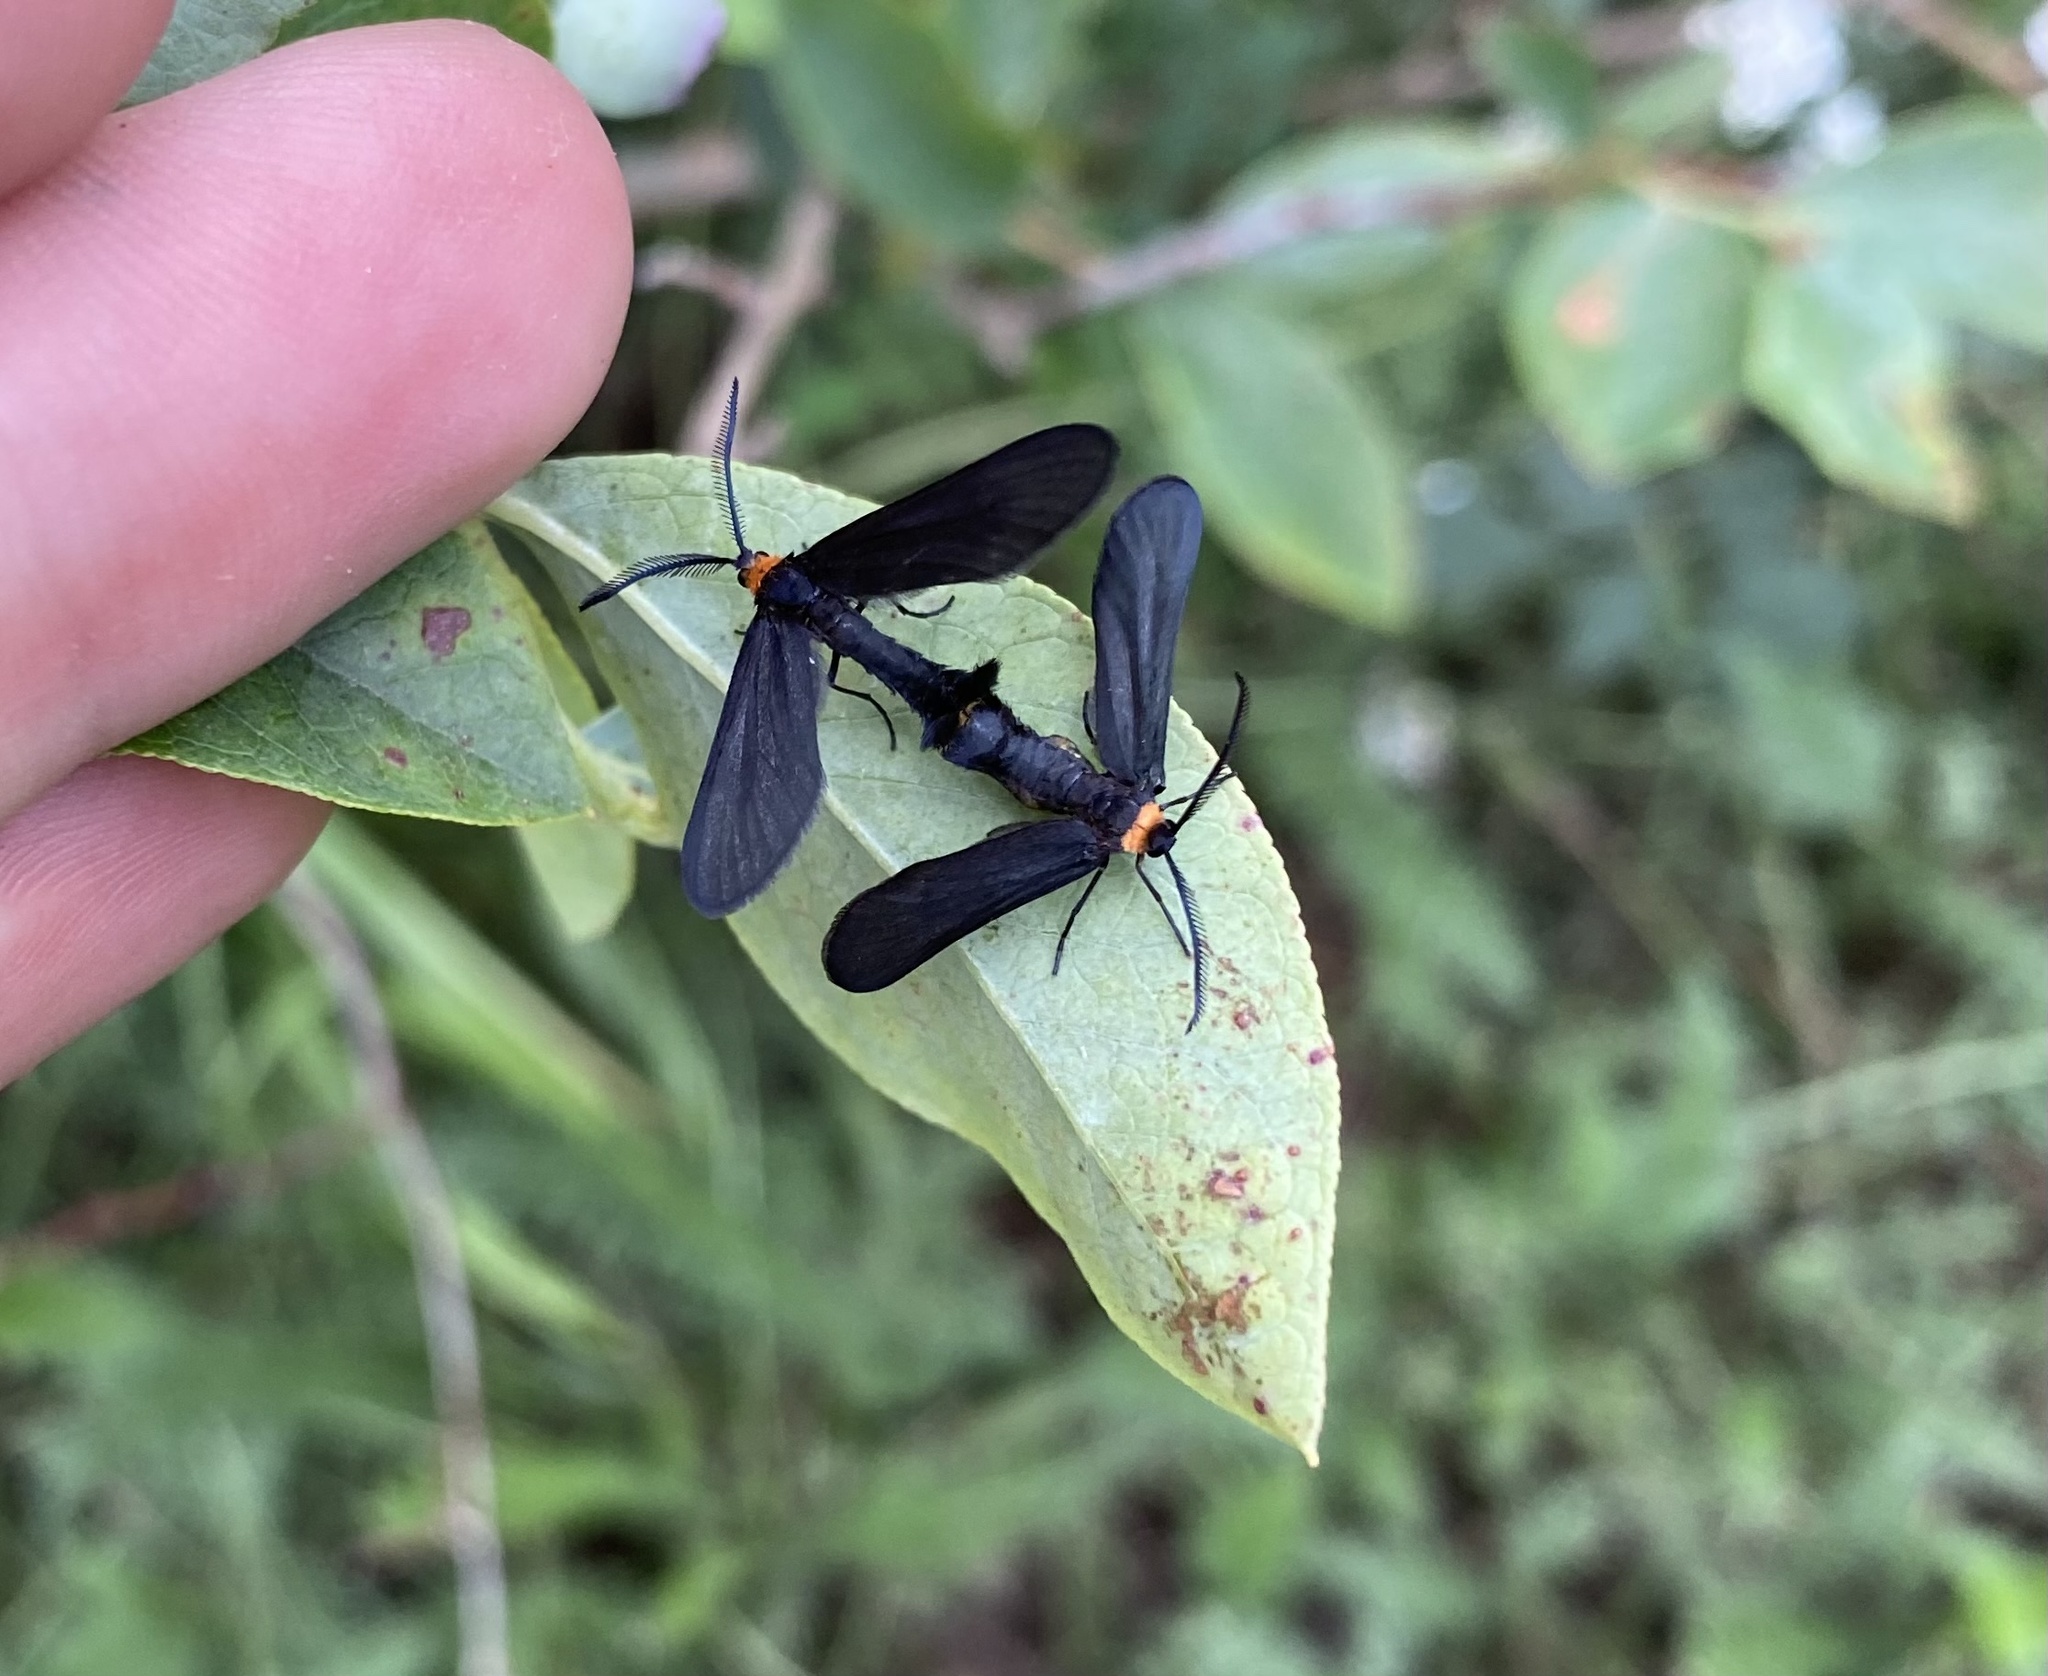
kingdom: Animalia
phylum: Arthropoda
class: Insecta
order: Lepidoptera
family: Zygaenidae
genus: Harrisina
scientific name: Harrisina americana
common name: Grapeleaf skeletonizer moth
